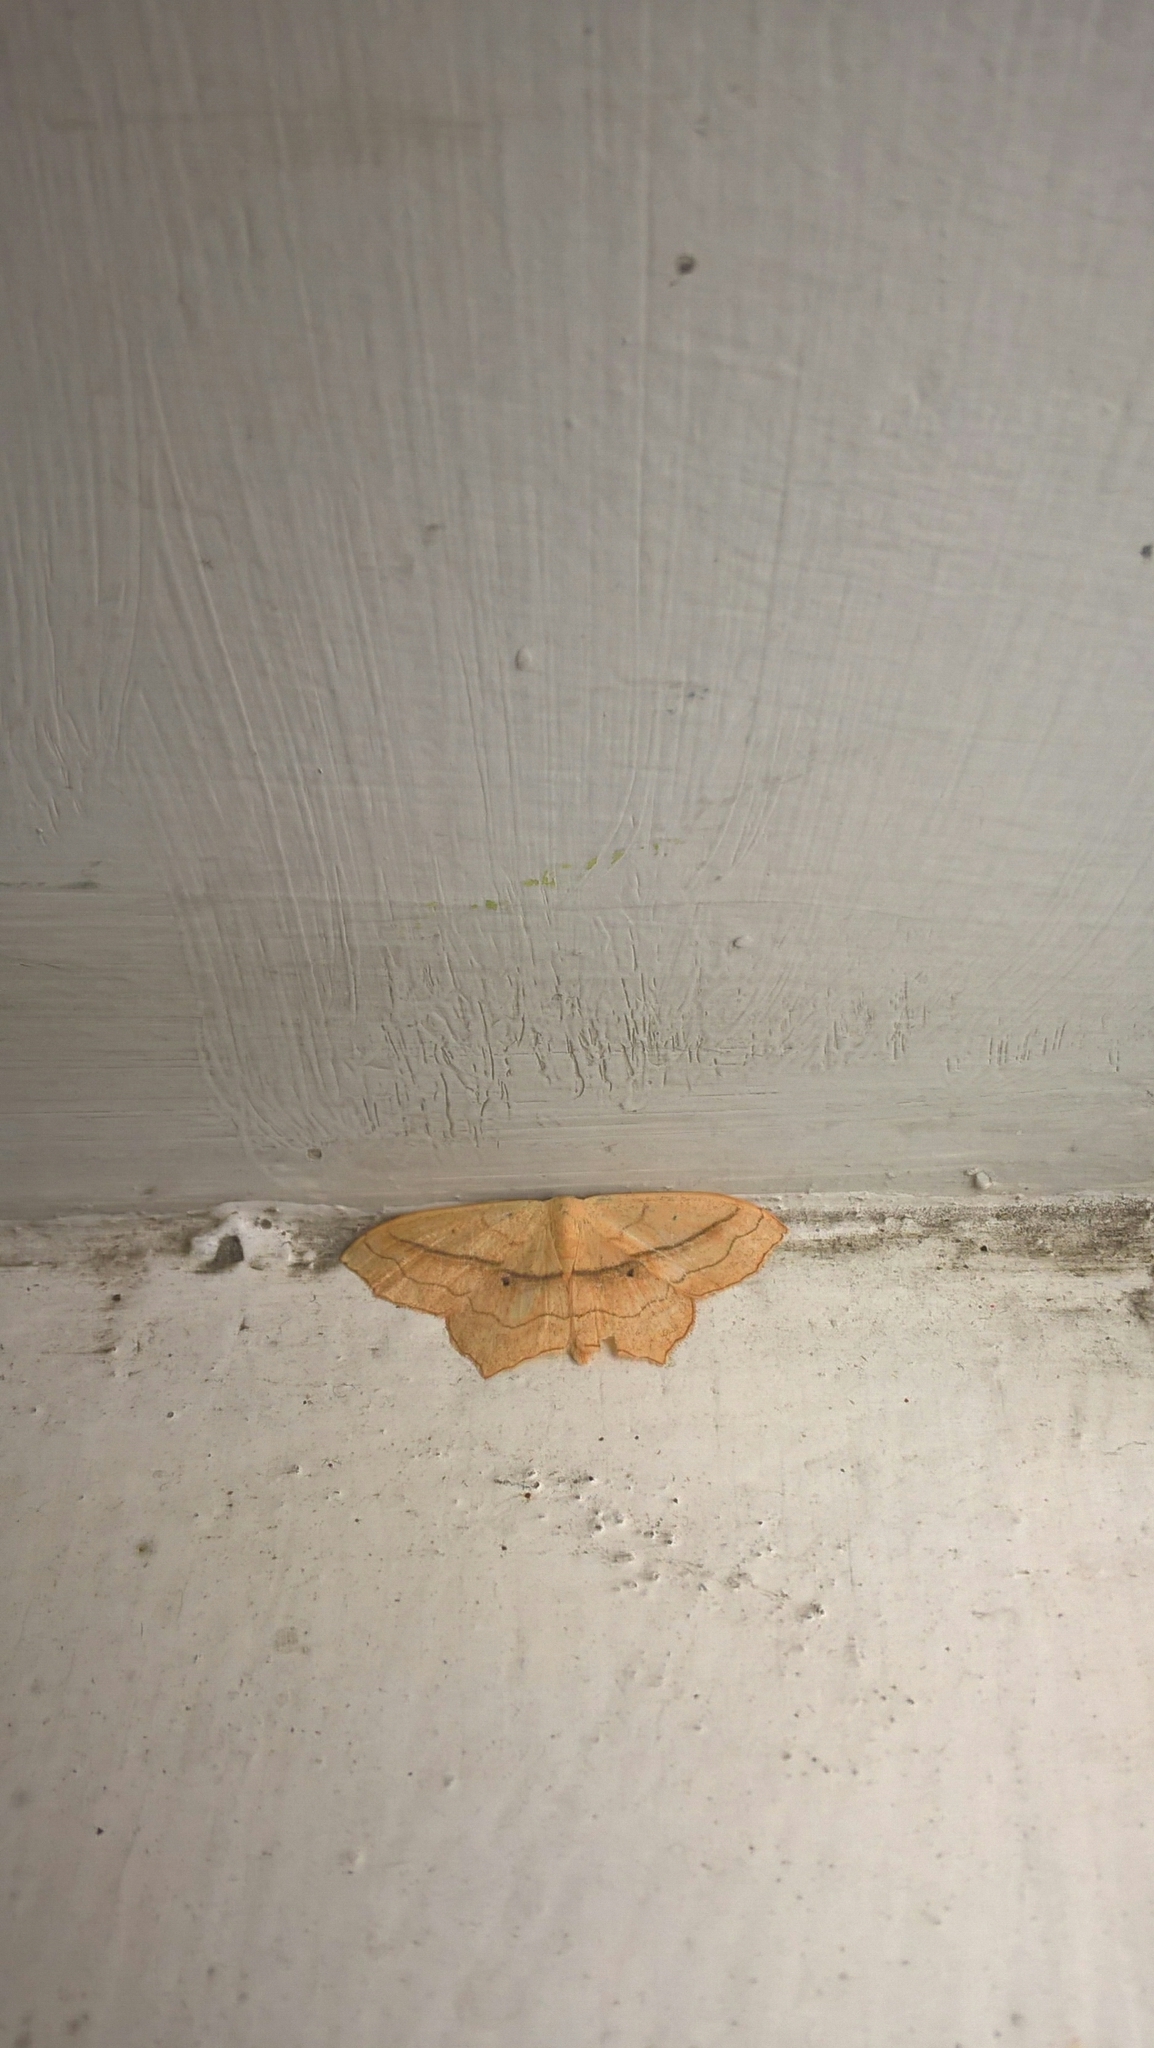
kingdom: Animalia
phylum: Arthropoda
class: Insecta
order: Lepidoptera
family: Geometridae
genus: Scopula
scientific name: Scopula imitaria
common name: Small blood-vein
